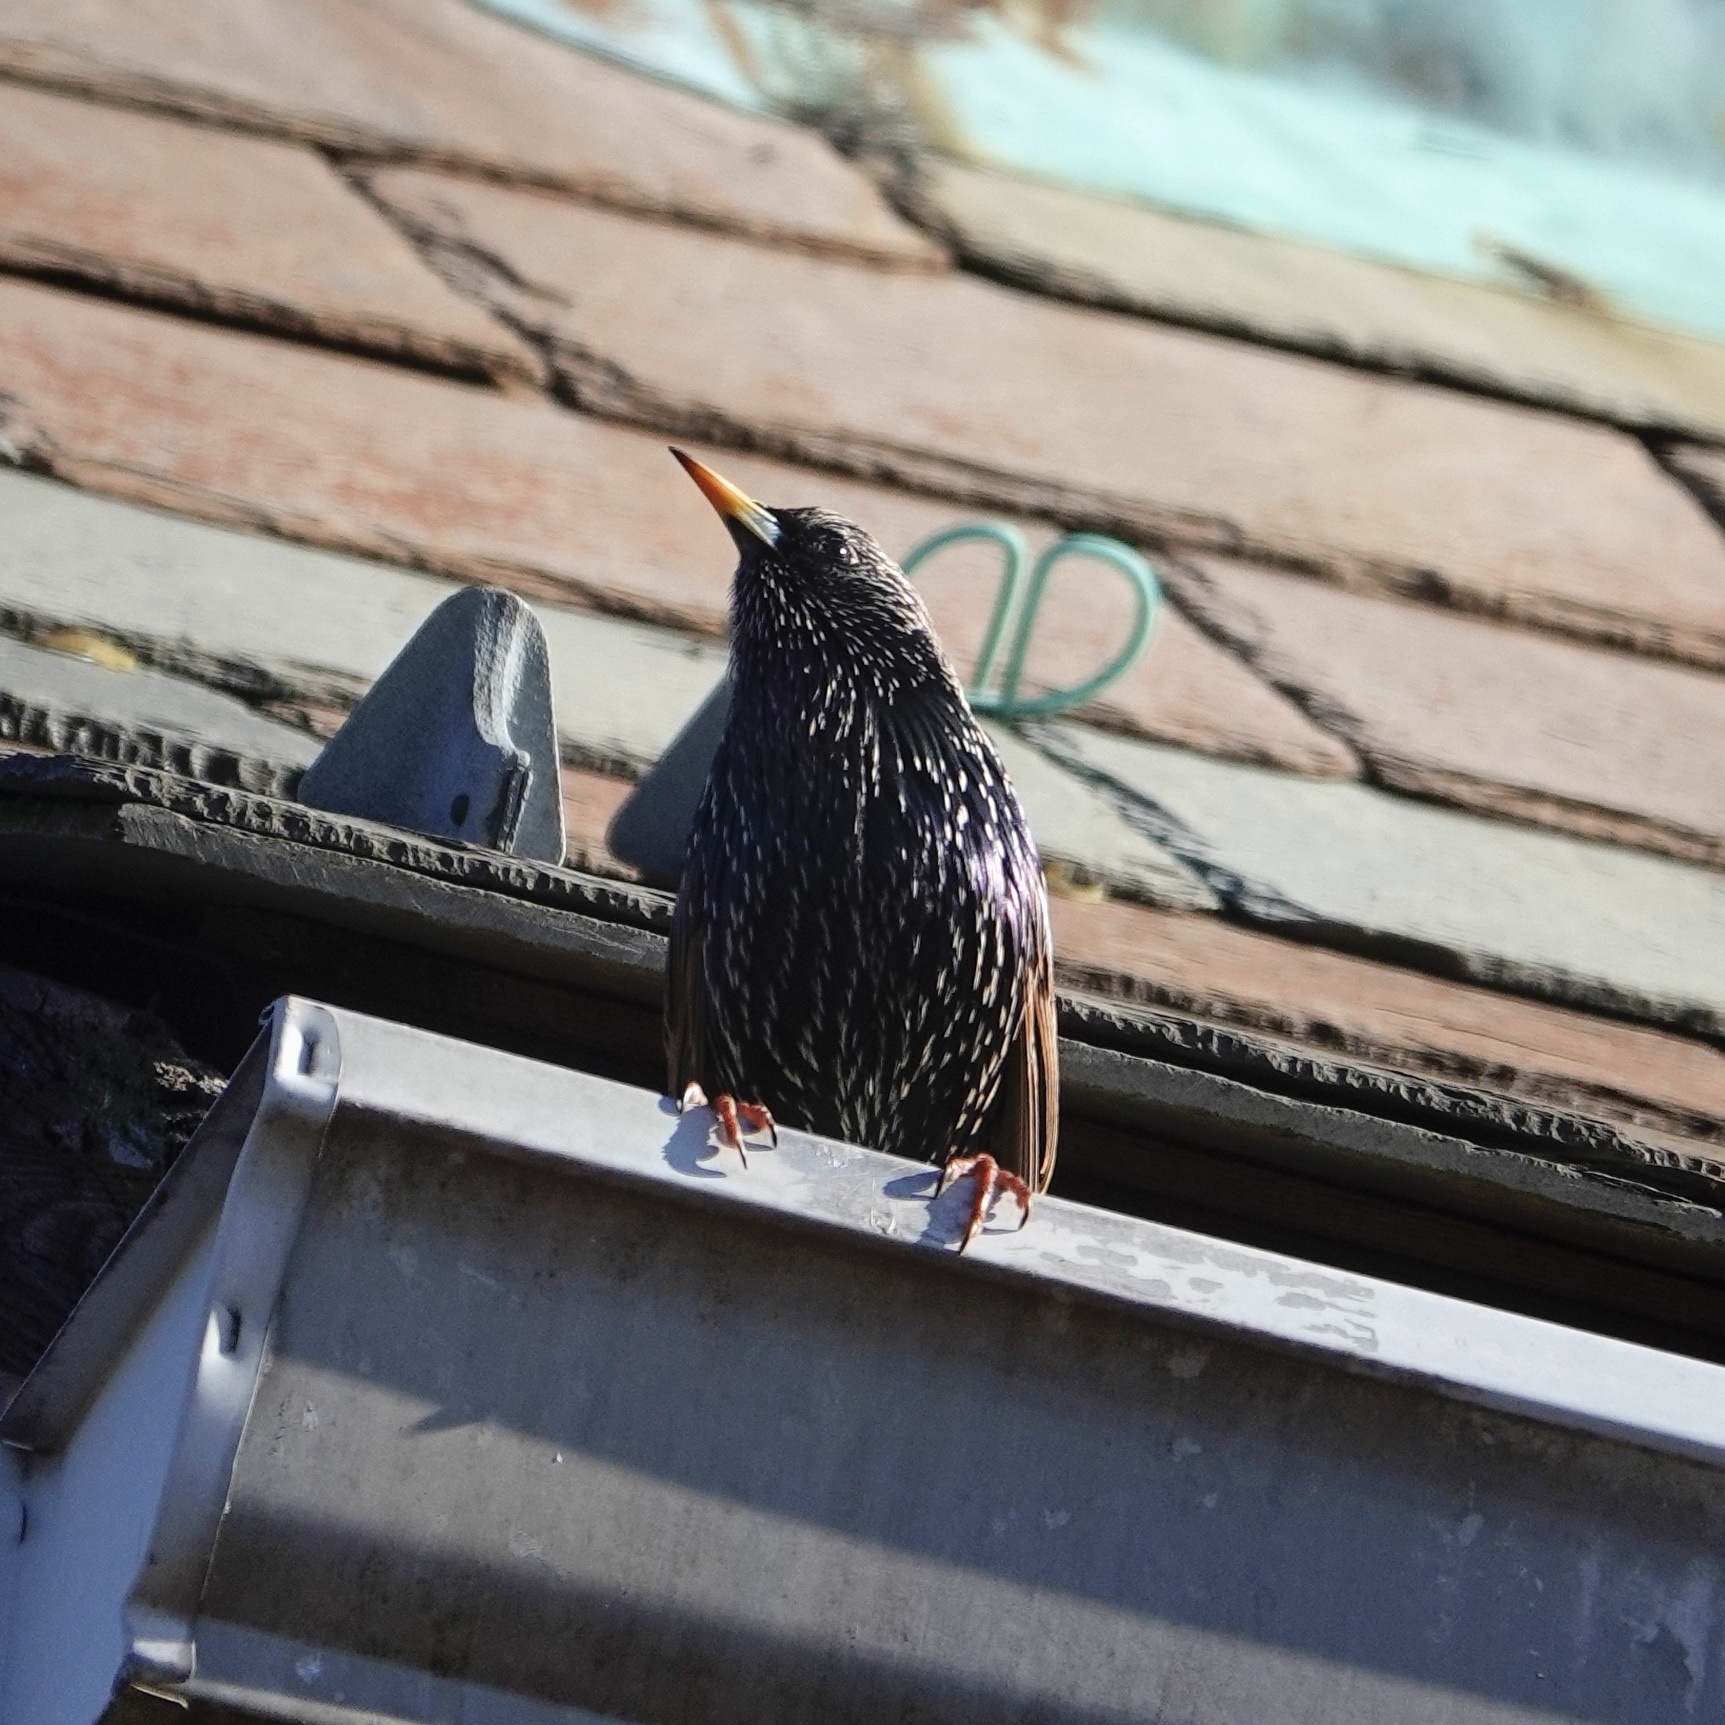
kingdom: Animalia
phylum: Chordata
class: Aves
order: Passeriformes
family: Sturnidae
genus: Sturnus
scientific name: Sturnus vulgaris
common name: Common starling
